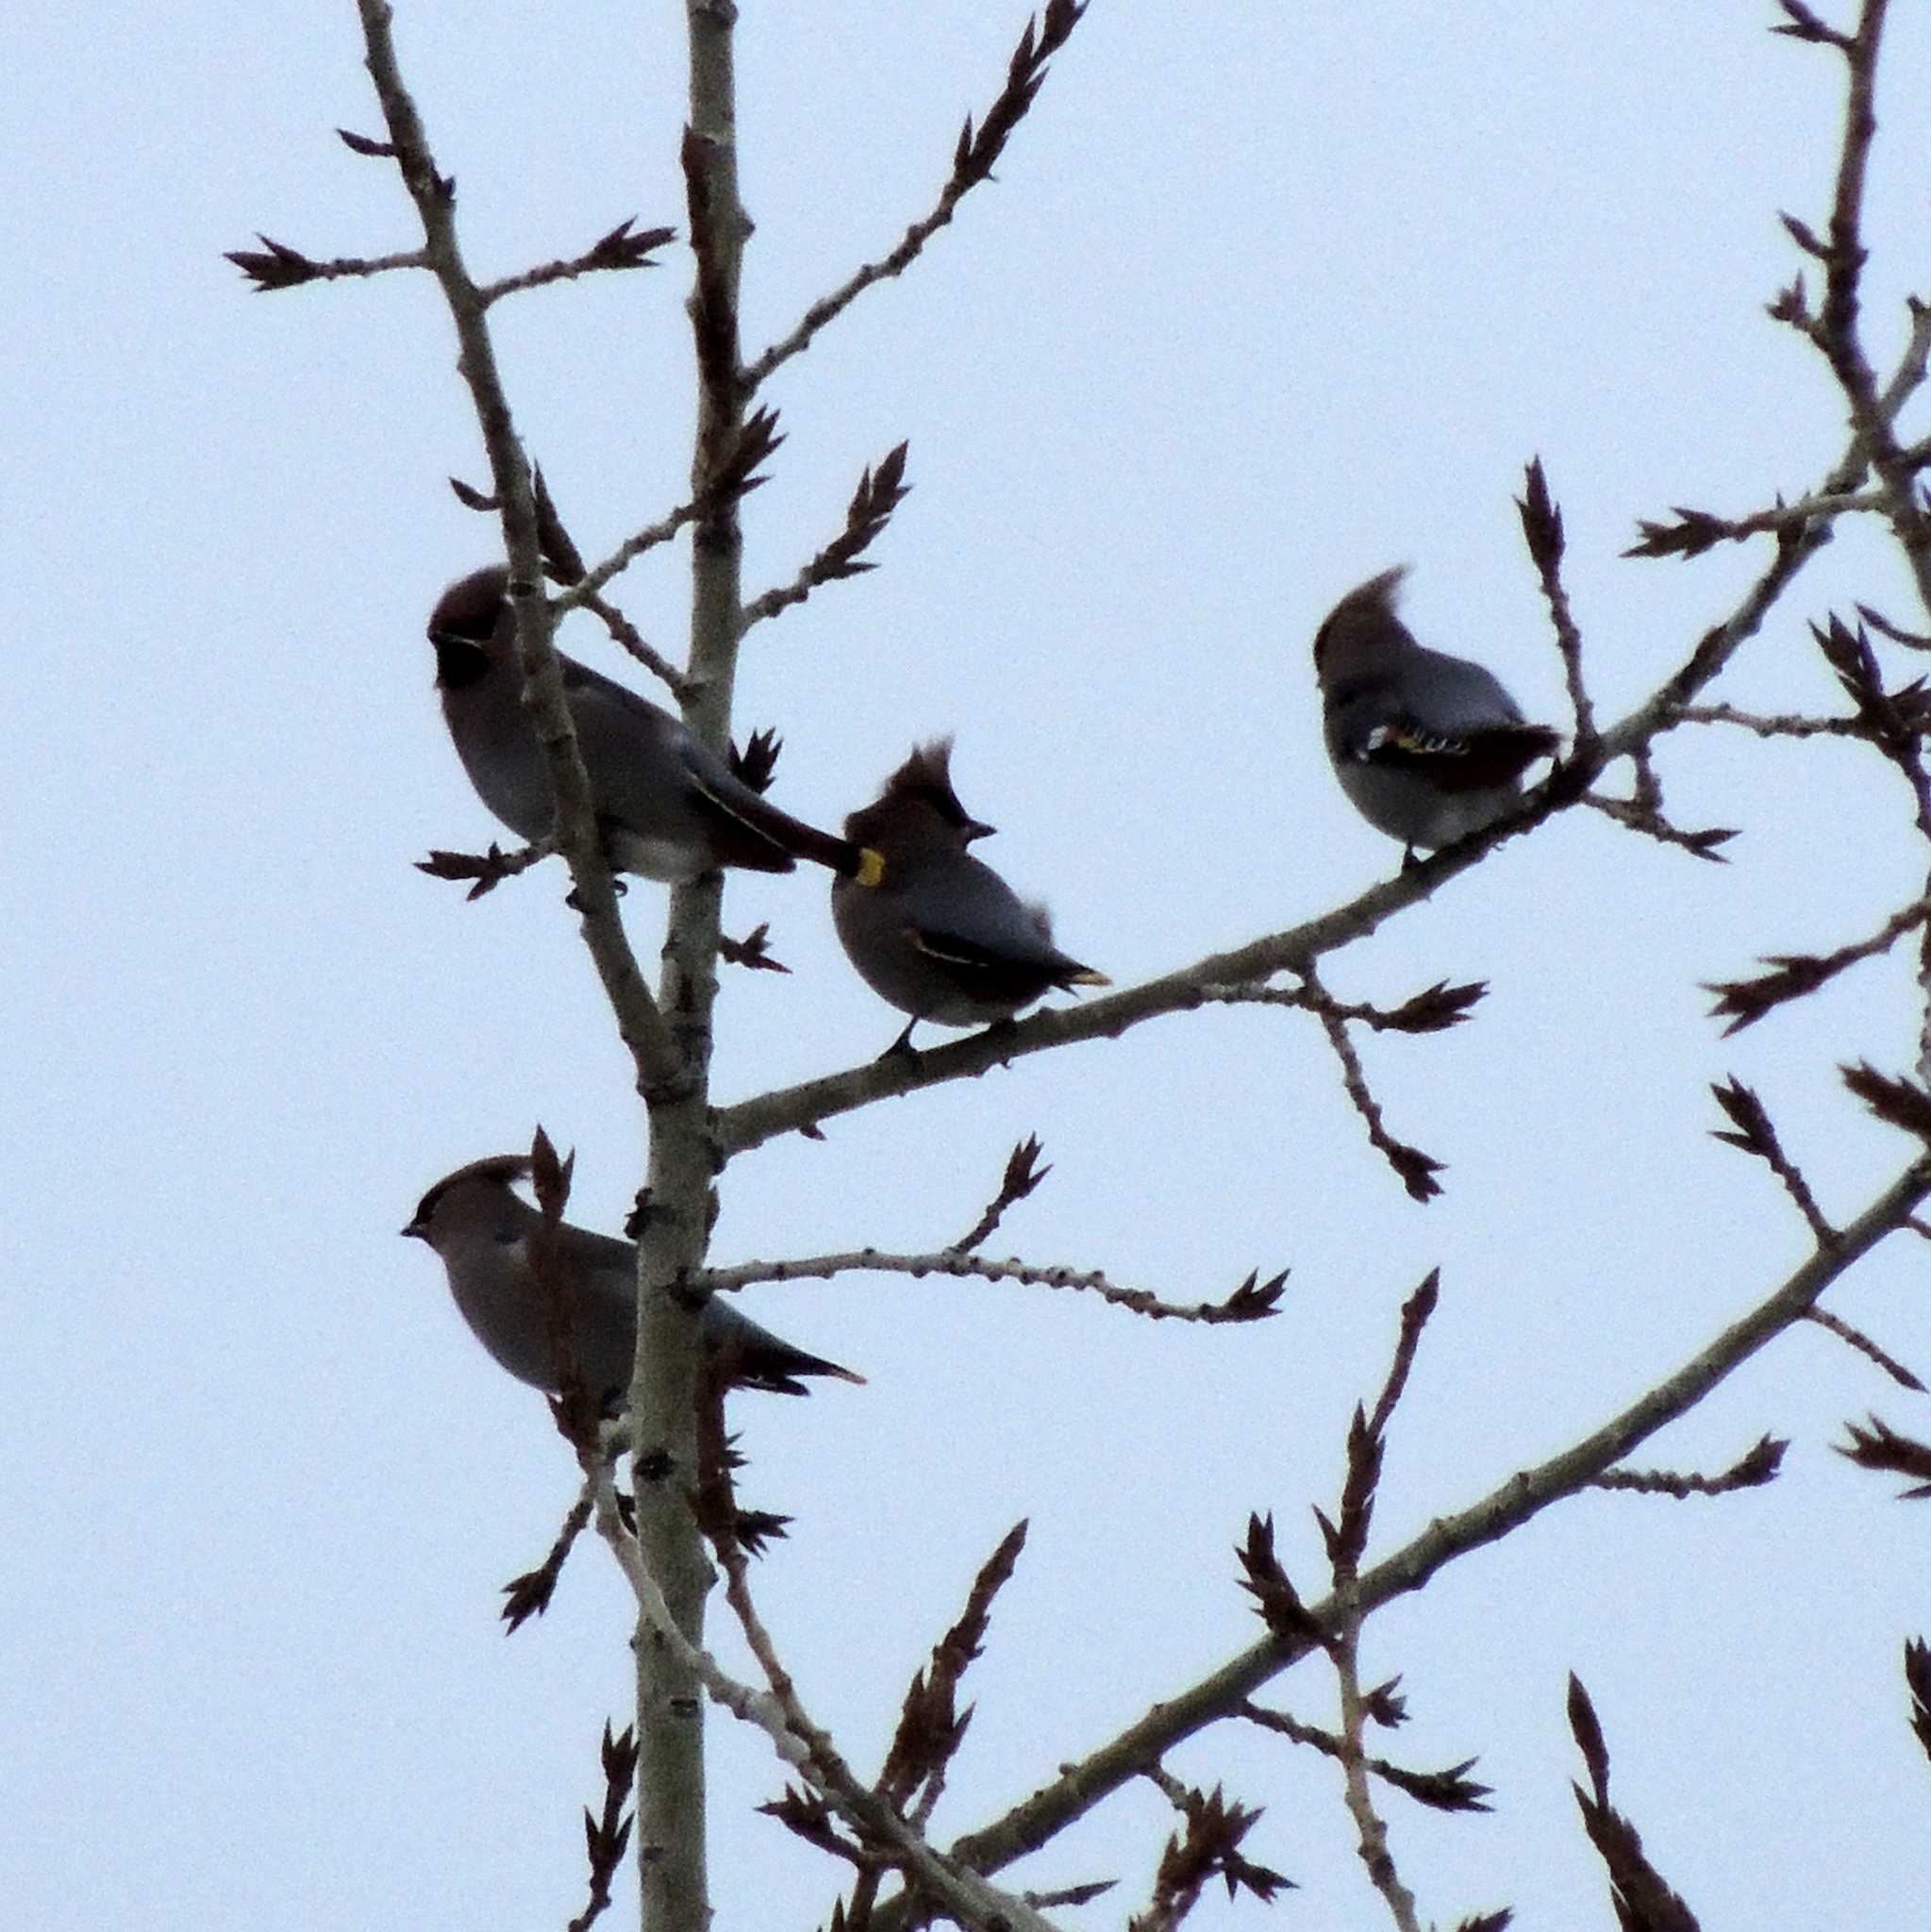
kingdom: Animalia
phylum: Chordata
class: Aves
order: Passeriformes
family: Bombycillidae
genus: Bombycilla
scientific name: Bombycilla garrulus
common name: Bohemian waxwing
